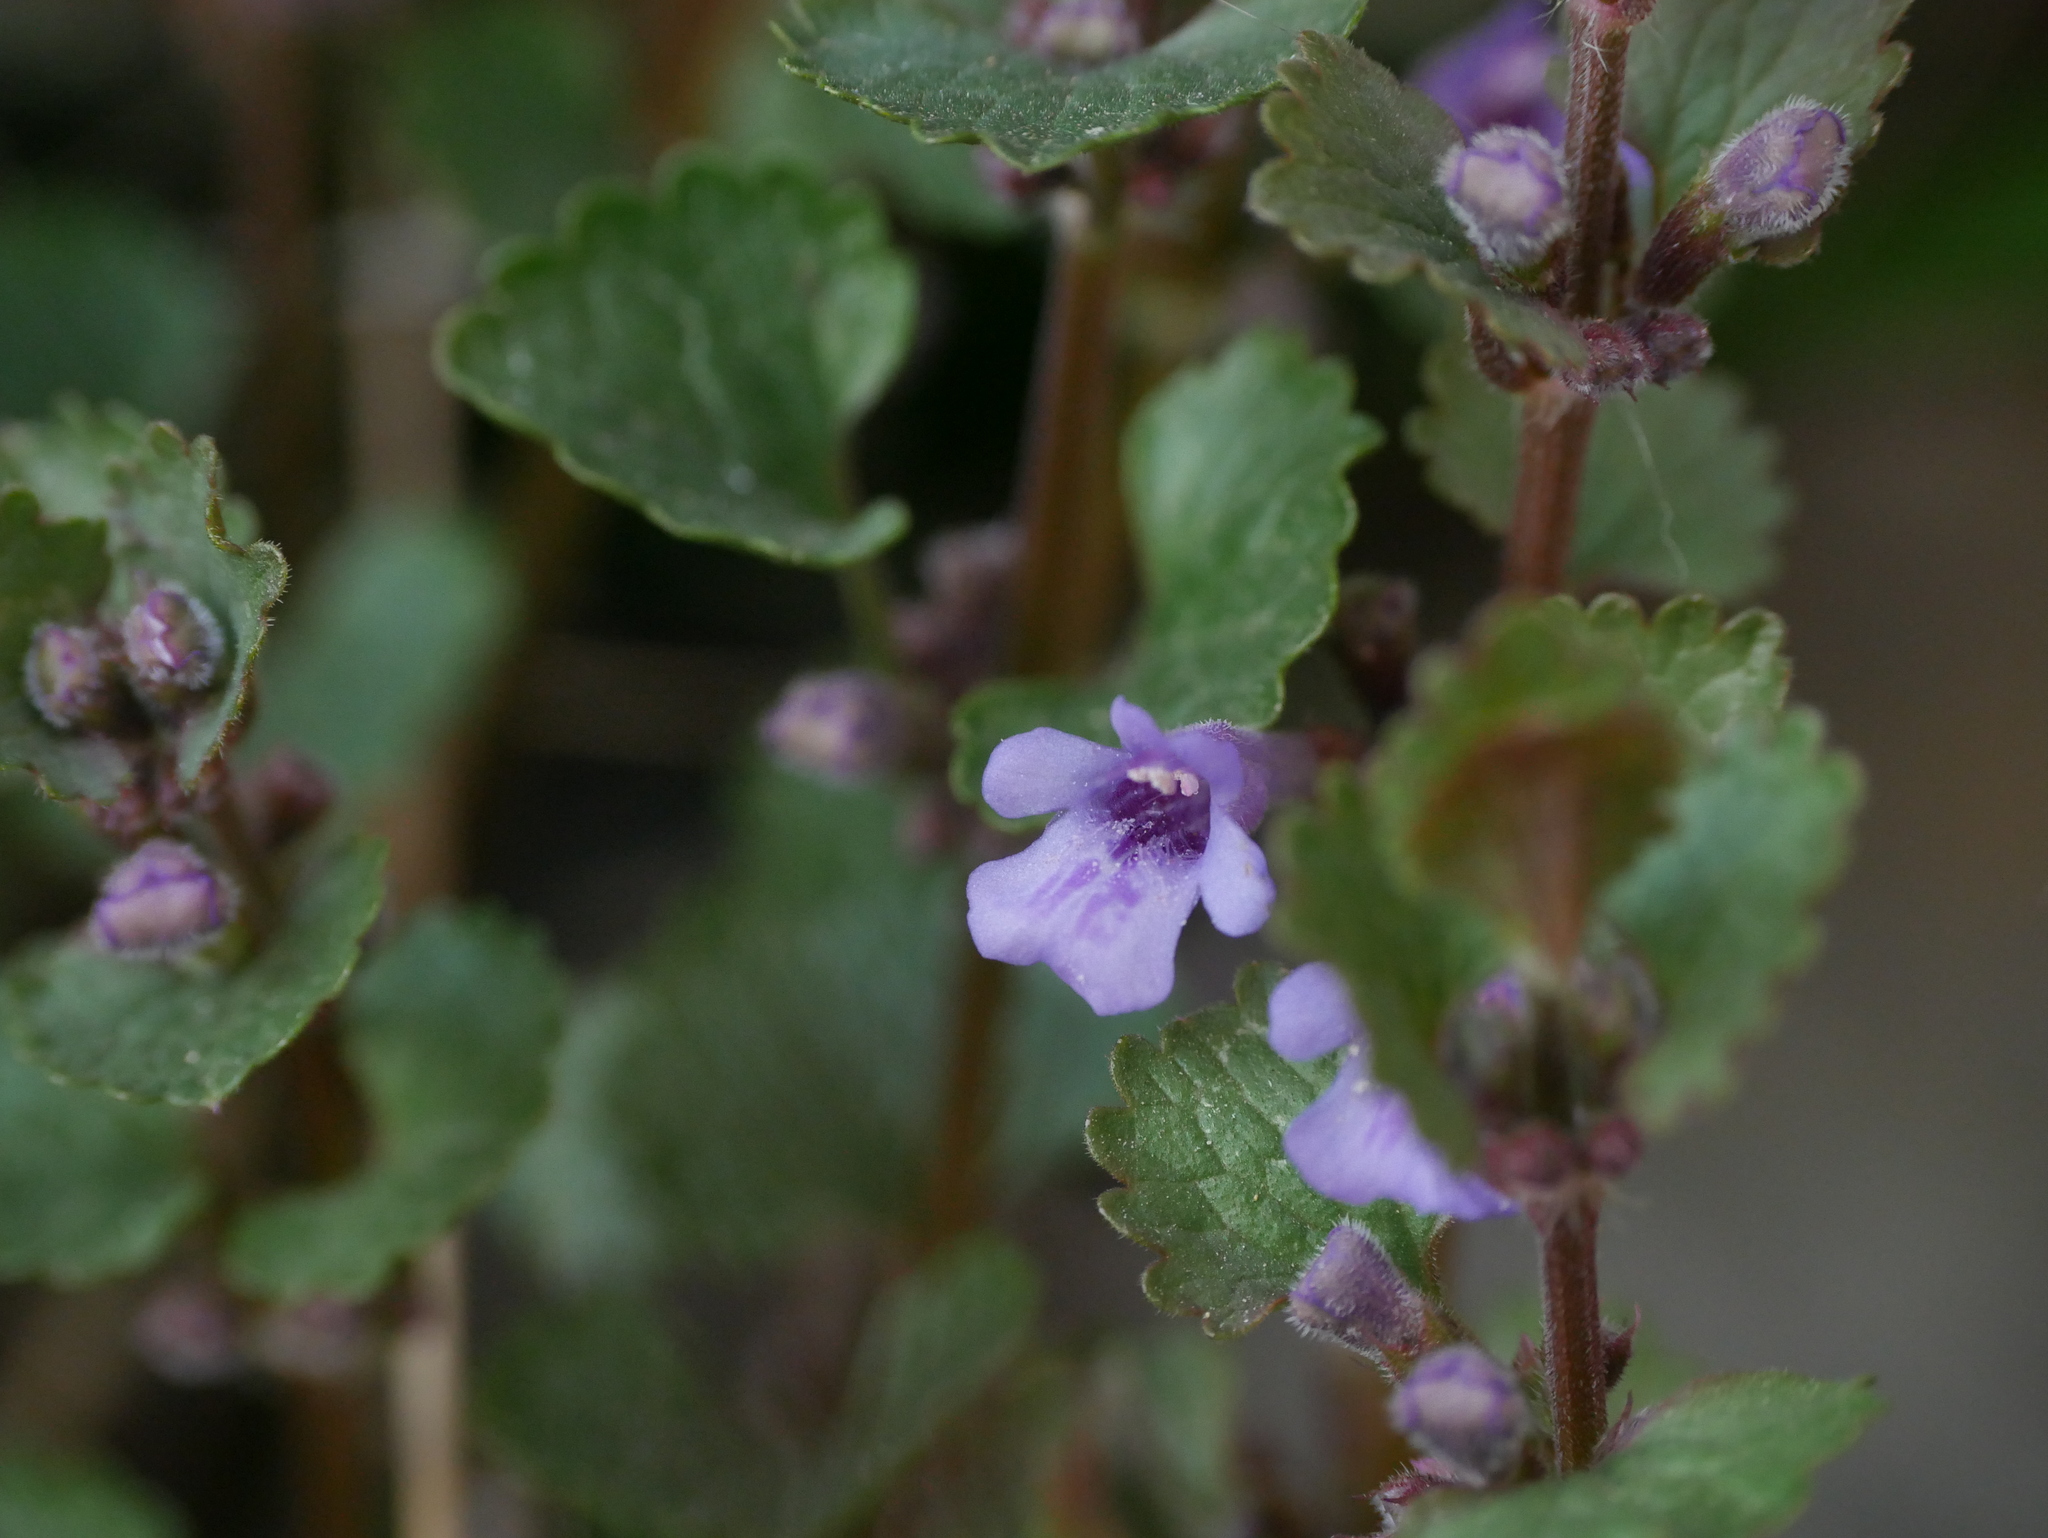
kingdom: Plantae
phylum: Tracheophyta
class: Magnoliopsida
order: Lamiales
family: Lamiaceae
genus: Glechoma
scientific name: Glechoma hederacea
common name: Ground ivy
